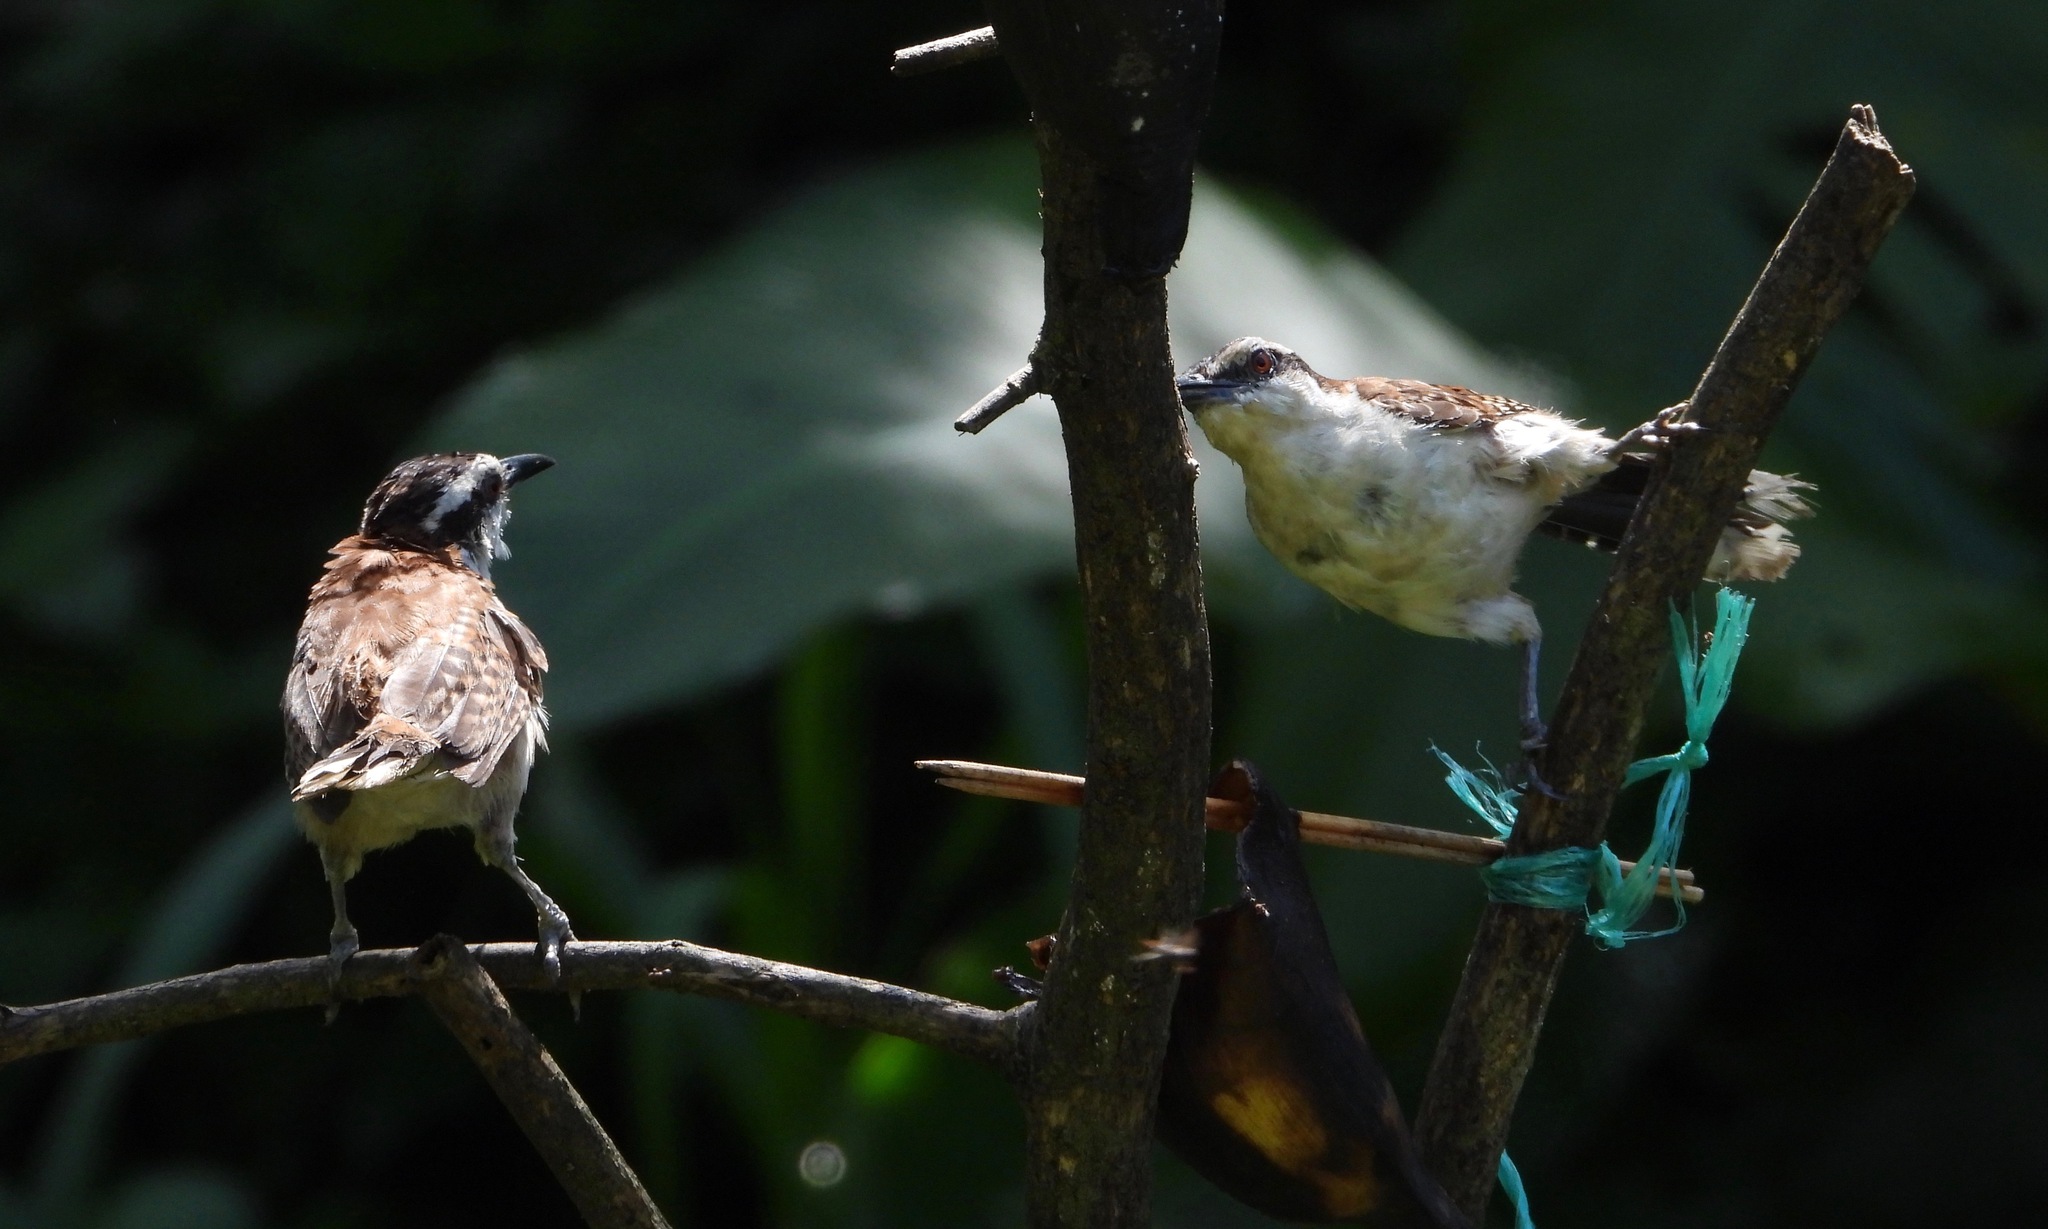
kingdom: Animalia
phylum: Chordata
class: Aves
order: Passeriformes
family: Troglodytidae
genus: Campylorhynchus
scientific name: Campylorhynchus rufinucha
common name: Rufous-naped wren
